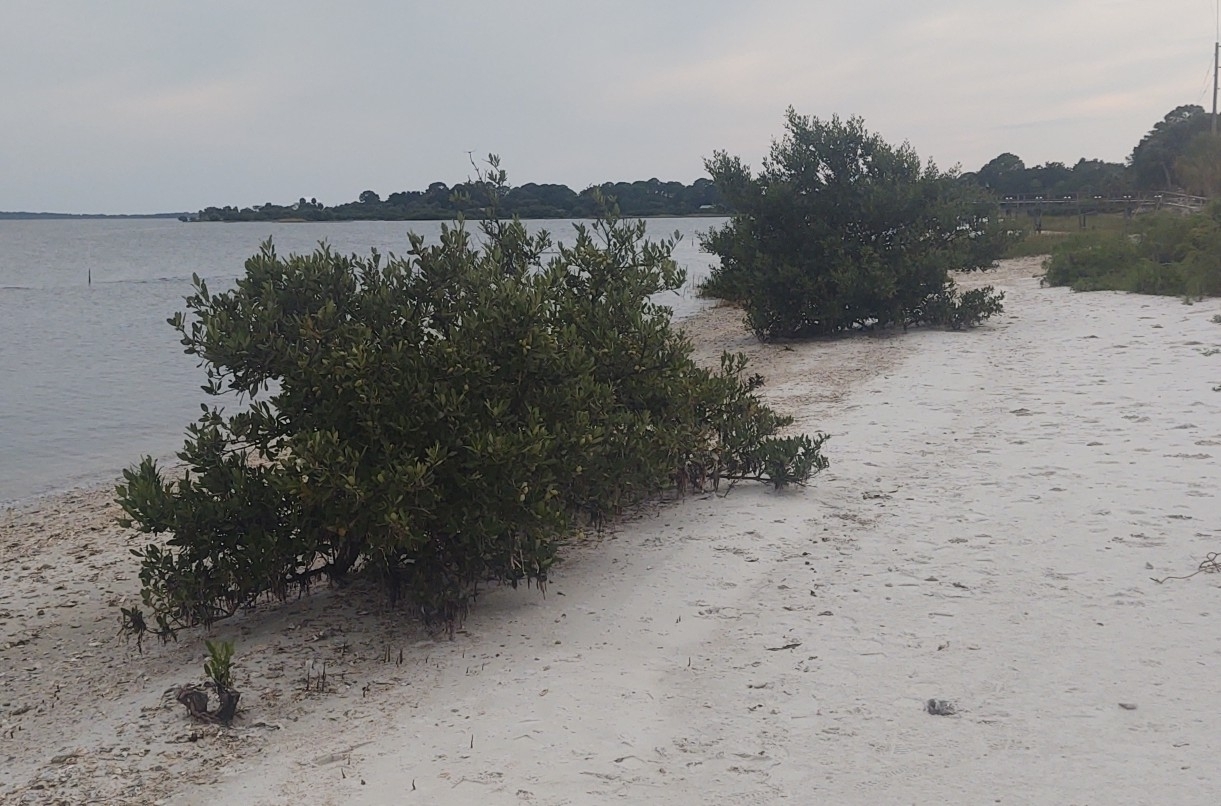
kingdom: Plantae
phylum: Tracheophyta
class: Magnoliopsida
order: Lamiales
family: Acanthaceae
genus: Avicennia
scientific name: Avicennia germinans
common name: Black mangrove
